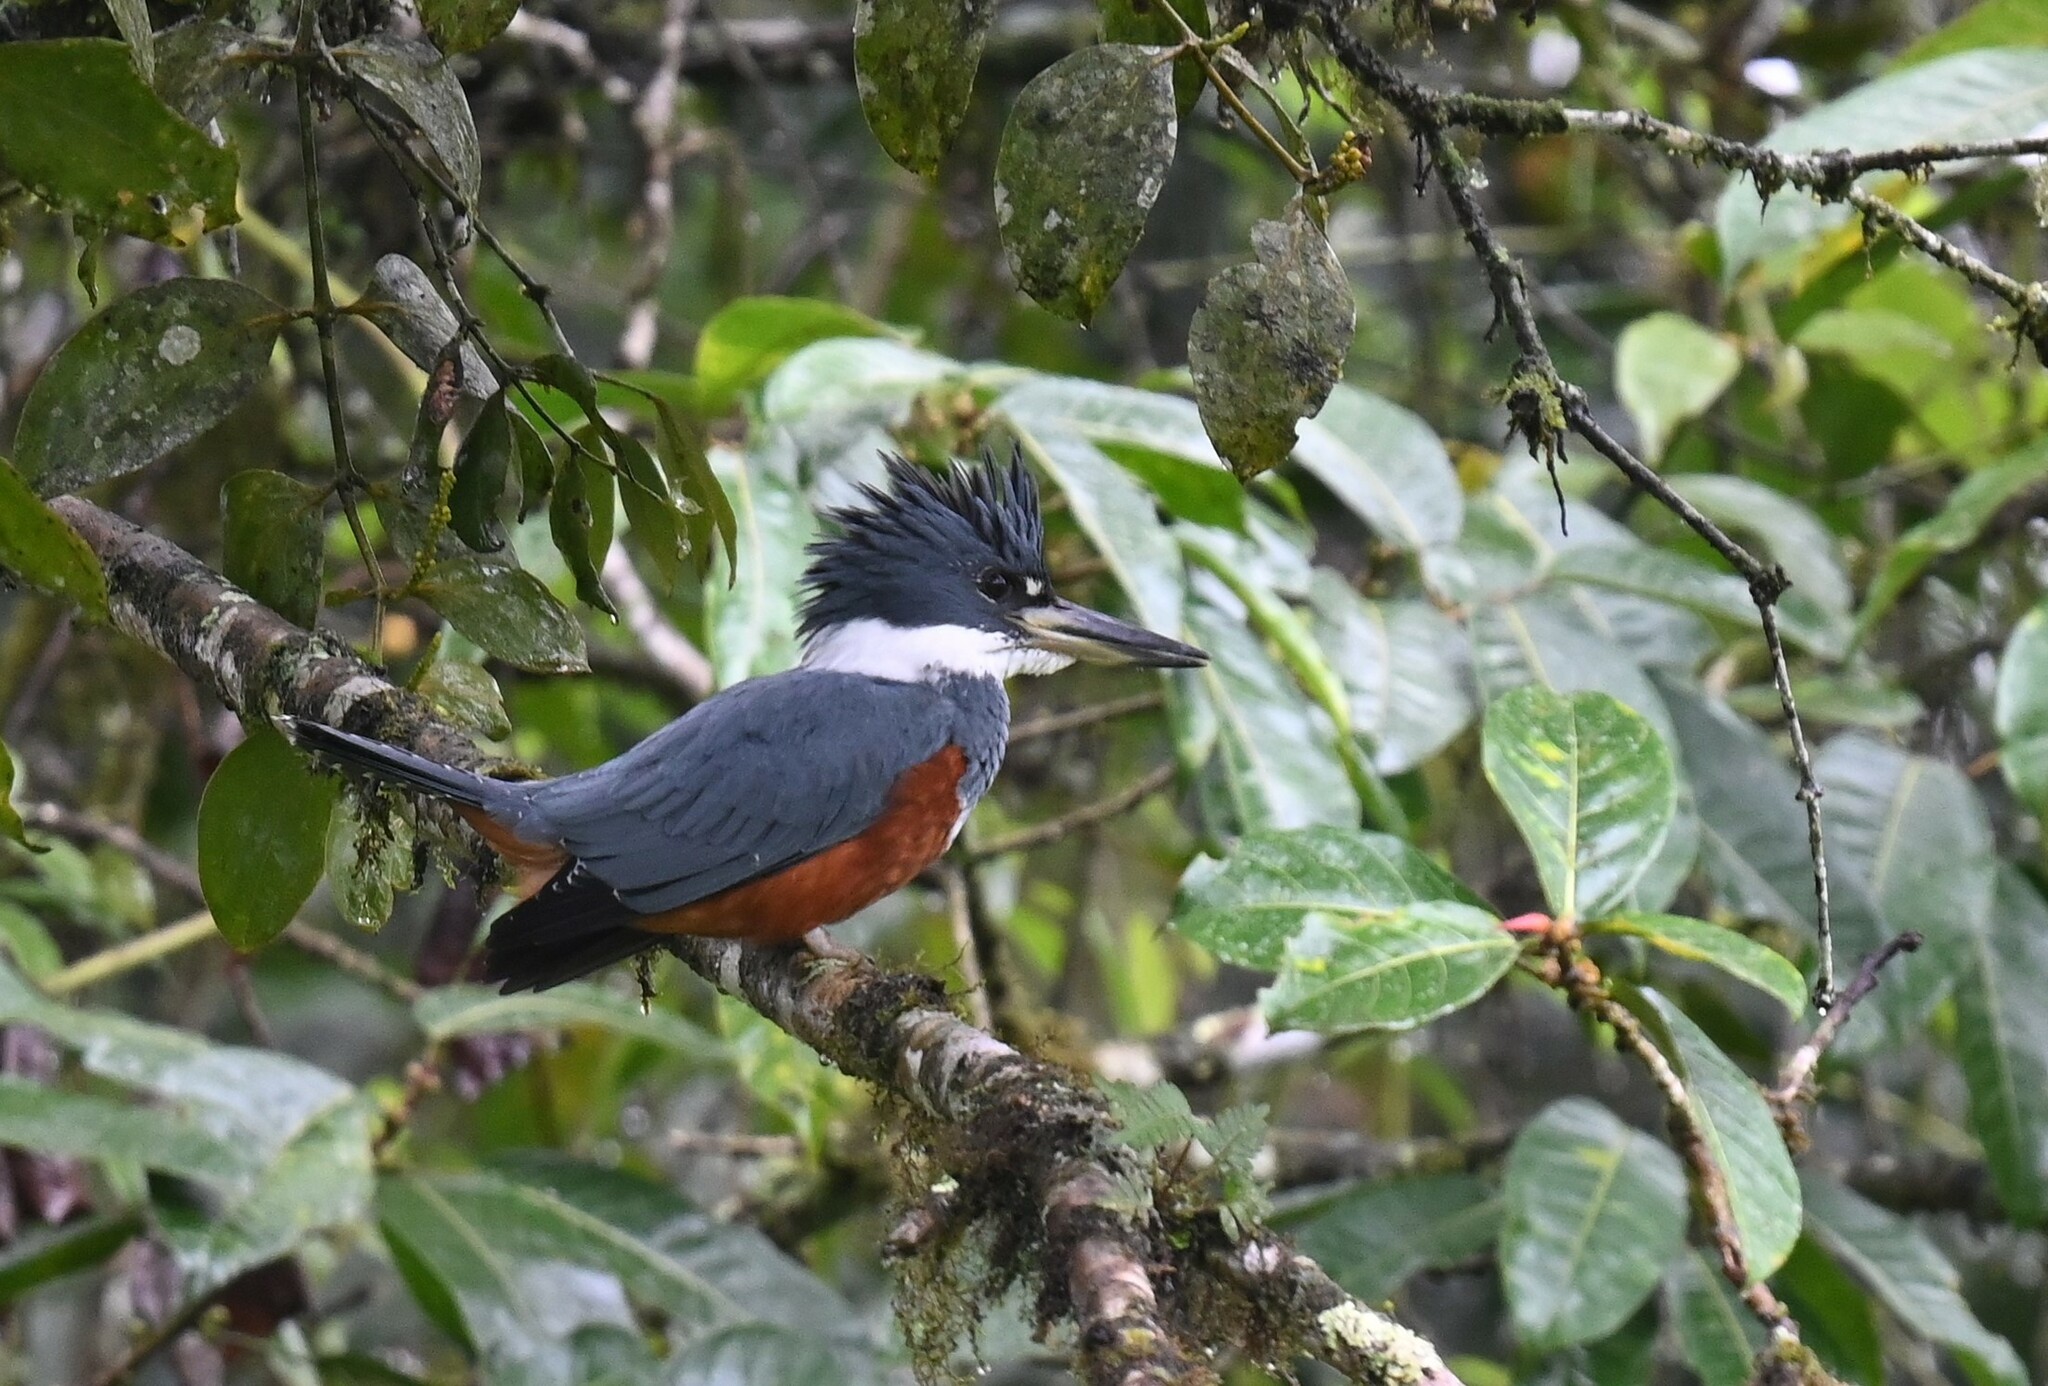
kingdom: Animalia
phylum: Chordata
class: Aves
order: Coraciiformes
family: Alcedinidae
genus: Megaceryle
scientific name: Megaceryle torquata
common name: Ringed kingfisher
